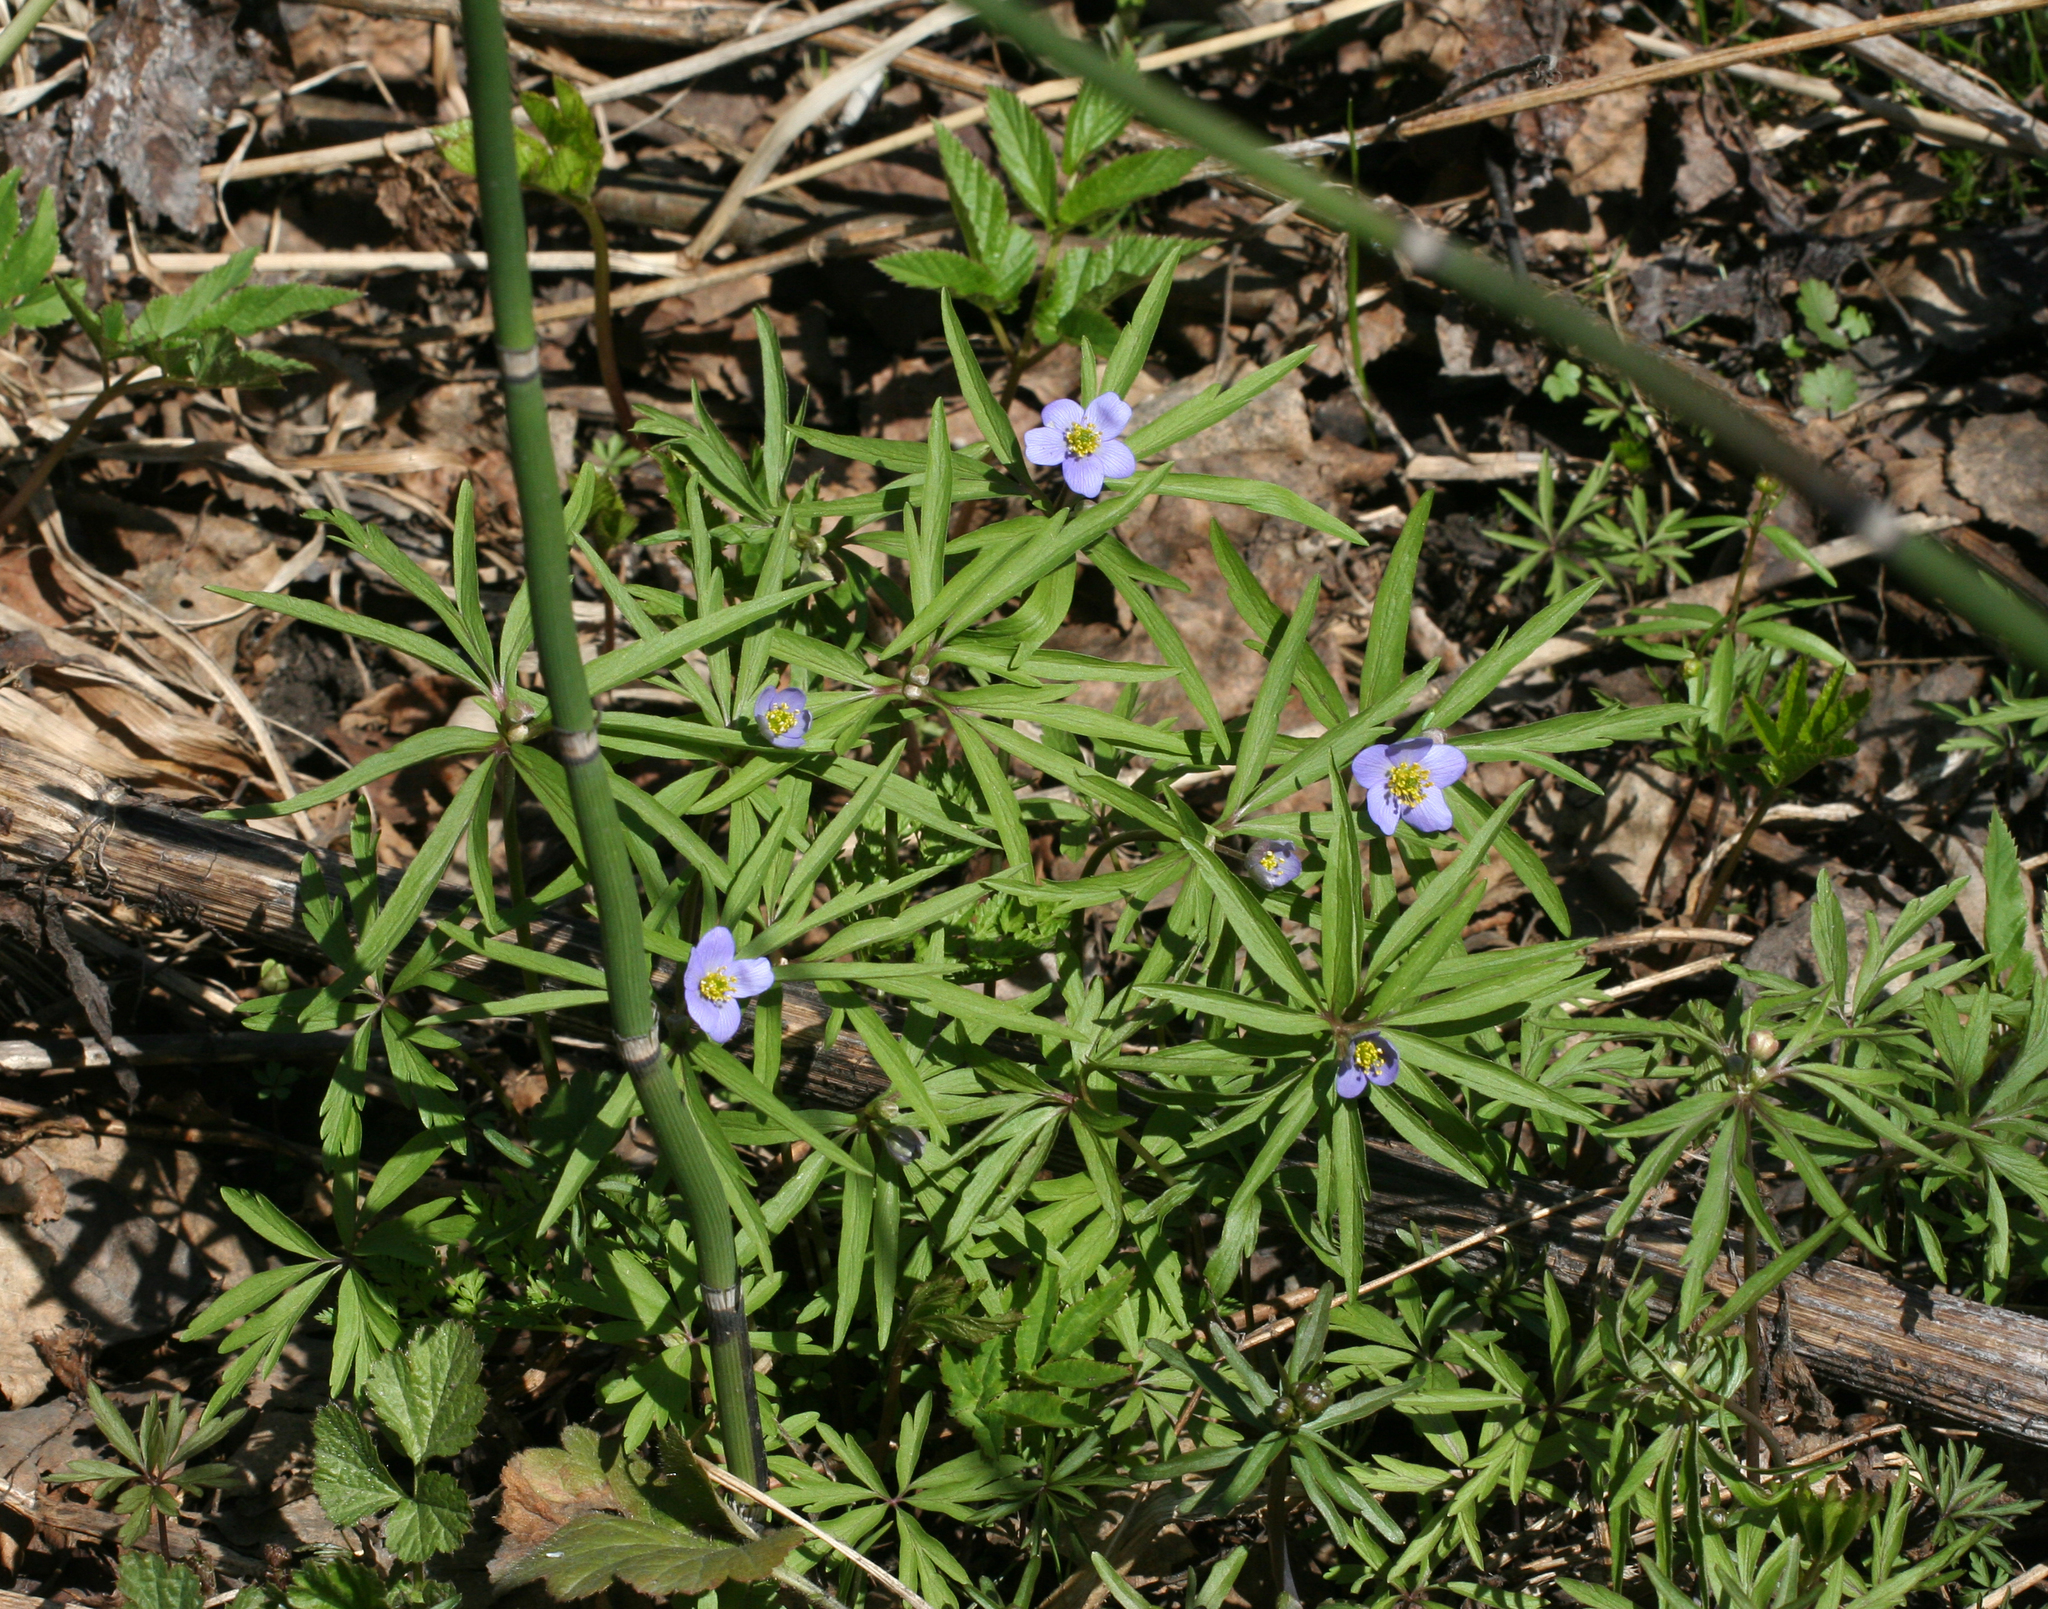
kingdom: Plantae
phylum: Tracheophyta
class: Magnoliopsida
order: Ranunculales
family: Ranunculaceae
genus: Anemone
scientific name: Anemone caerulea
